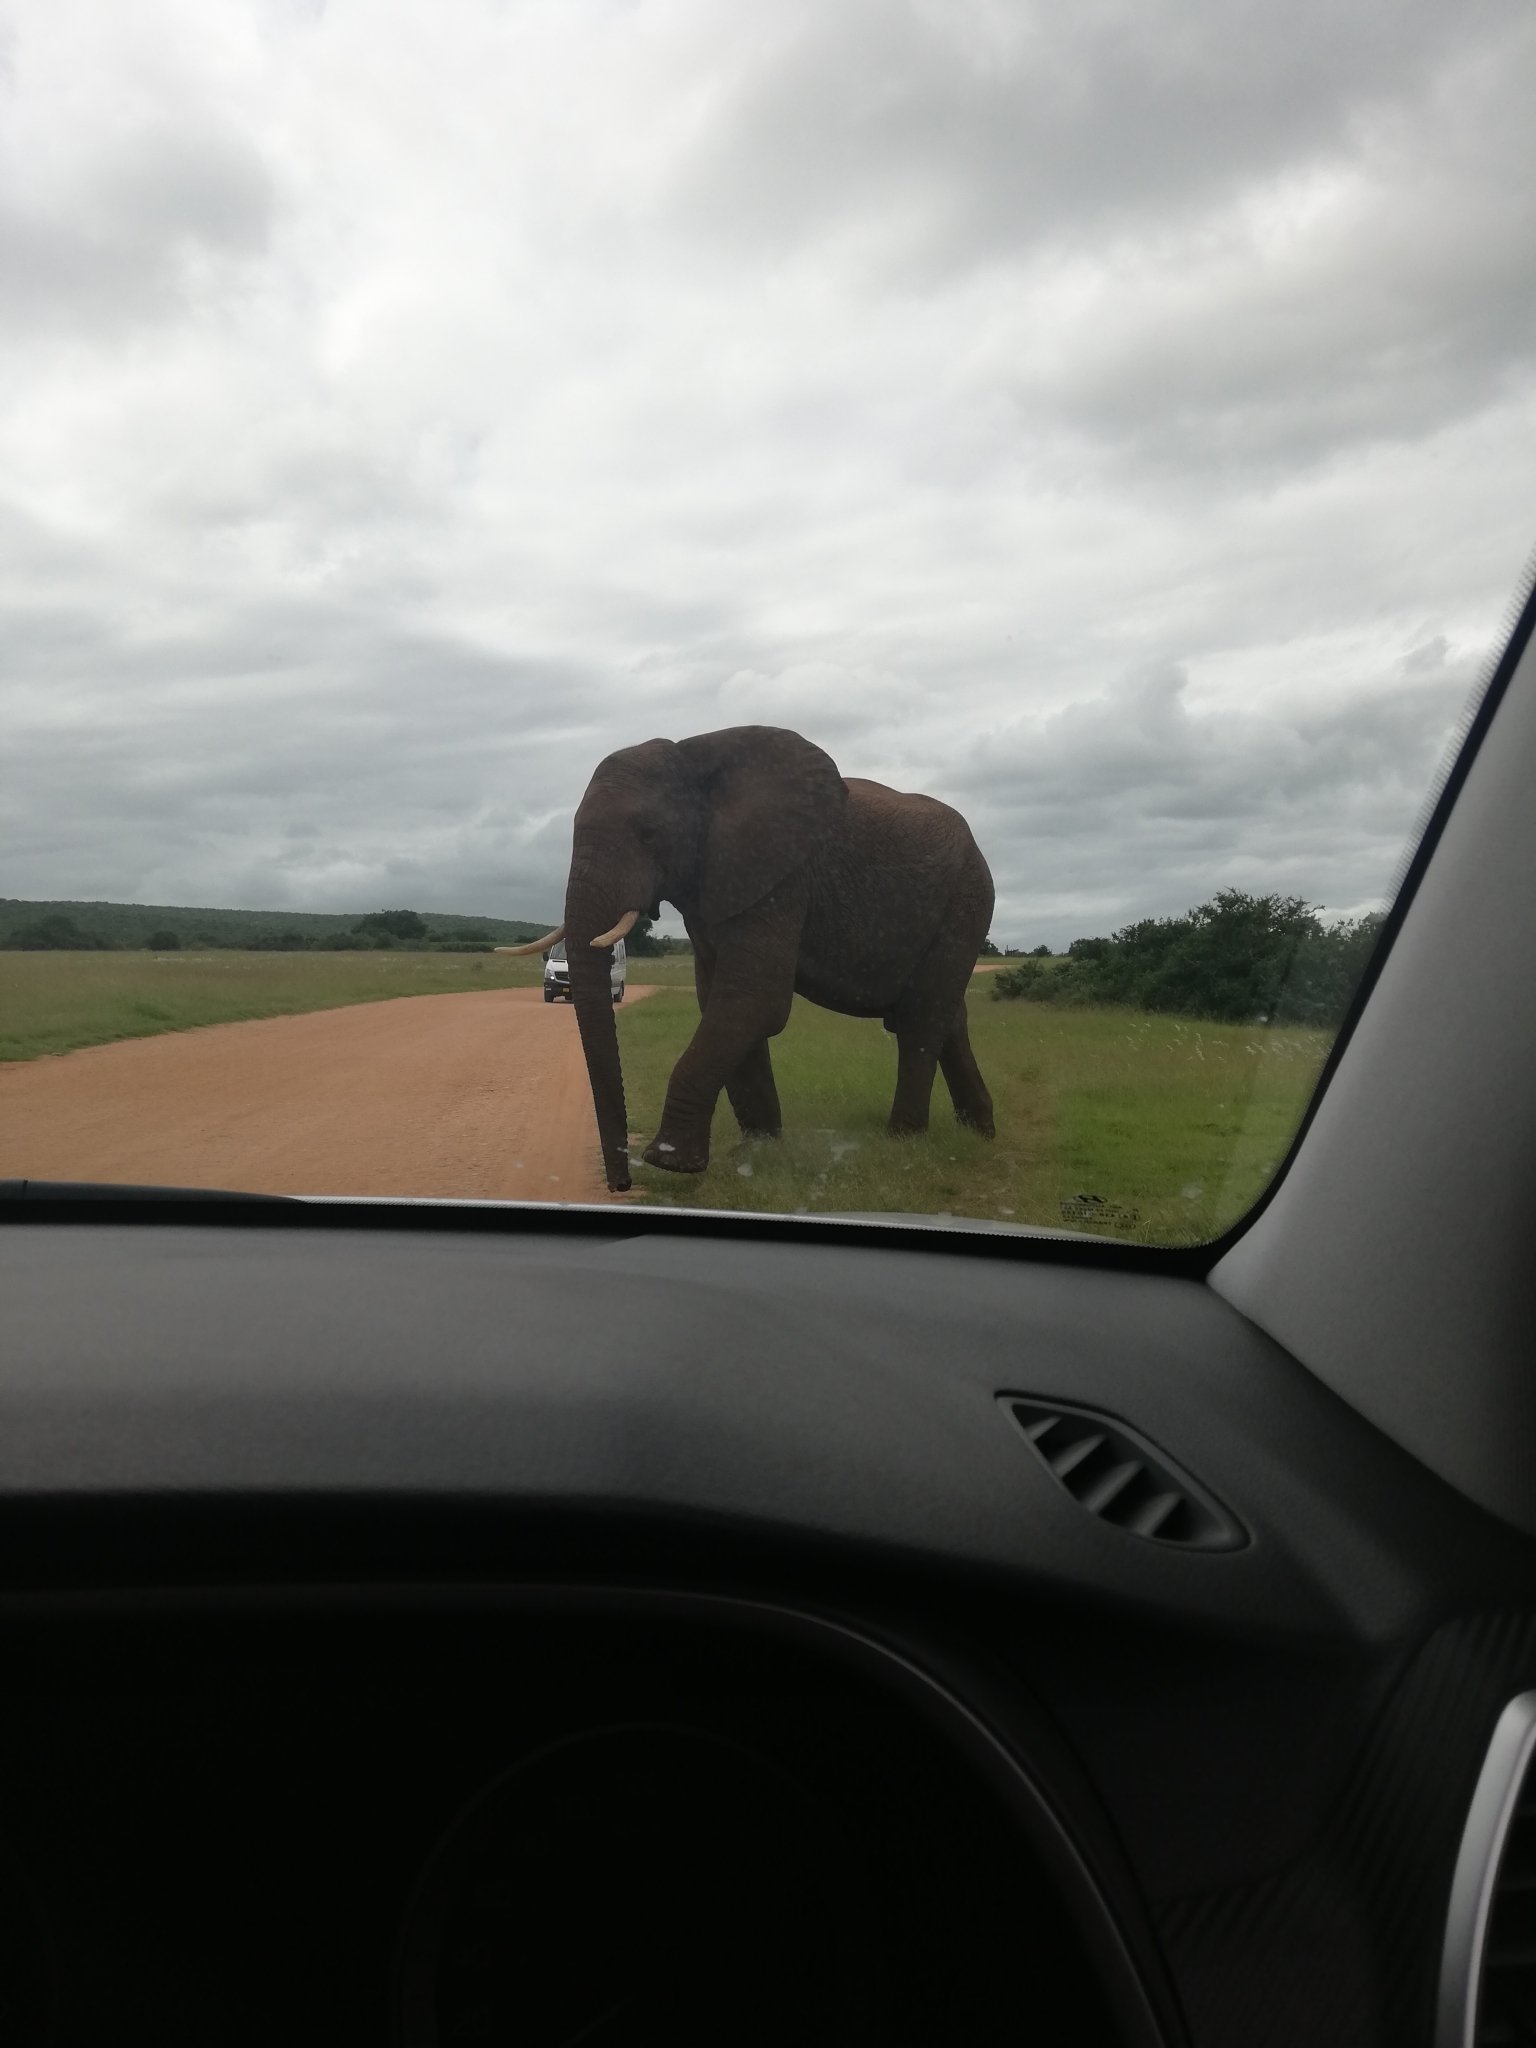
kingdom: Animalia
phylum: Chordata
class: Mammalia
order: Proboscidea
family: Elephantidae
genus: Loxodonta
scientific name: Loxodonta africana
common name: African elephant
